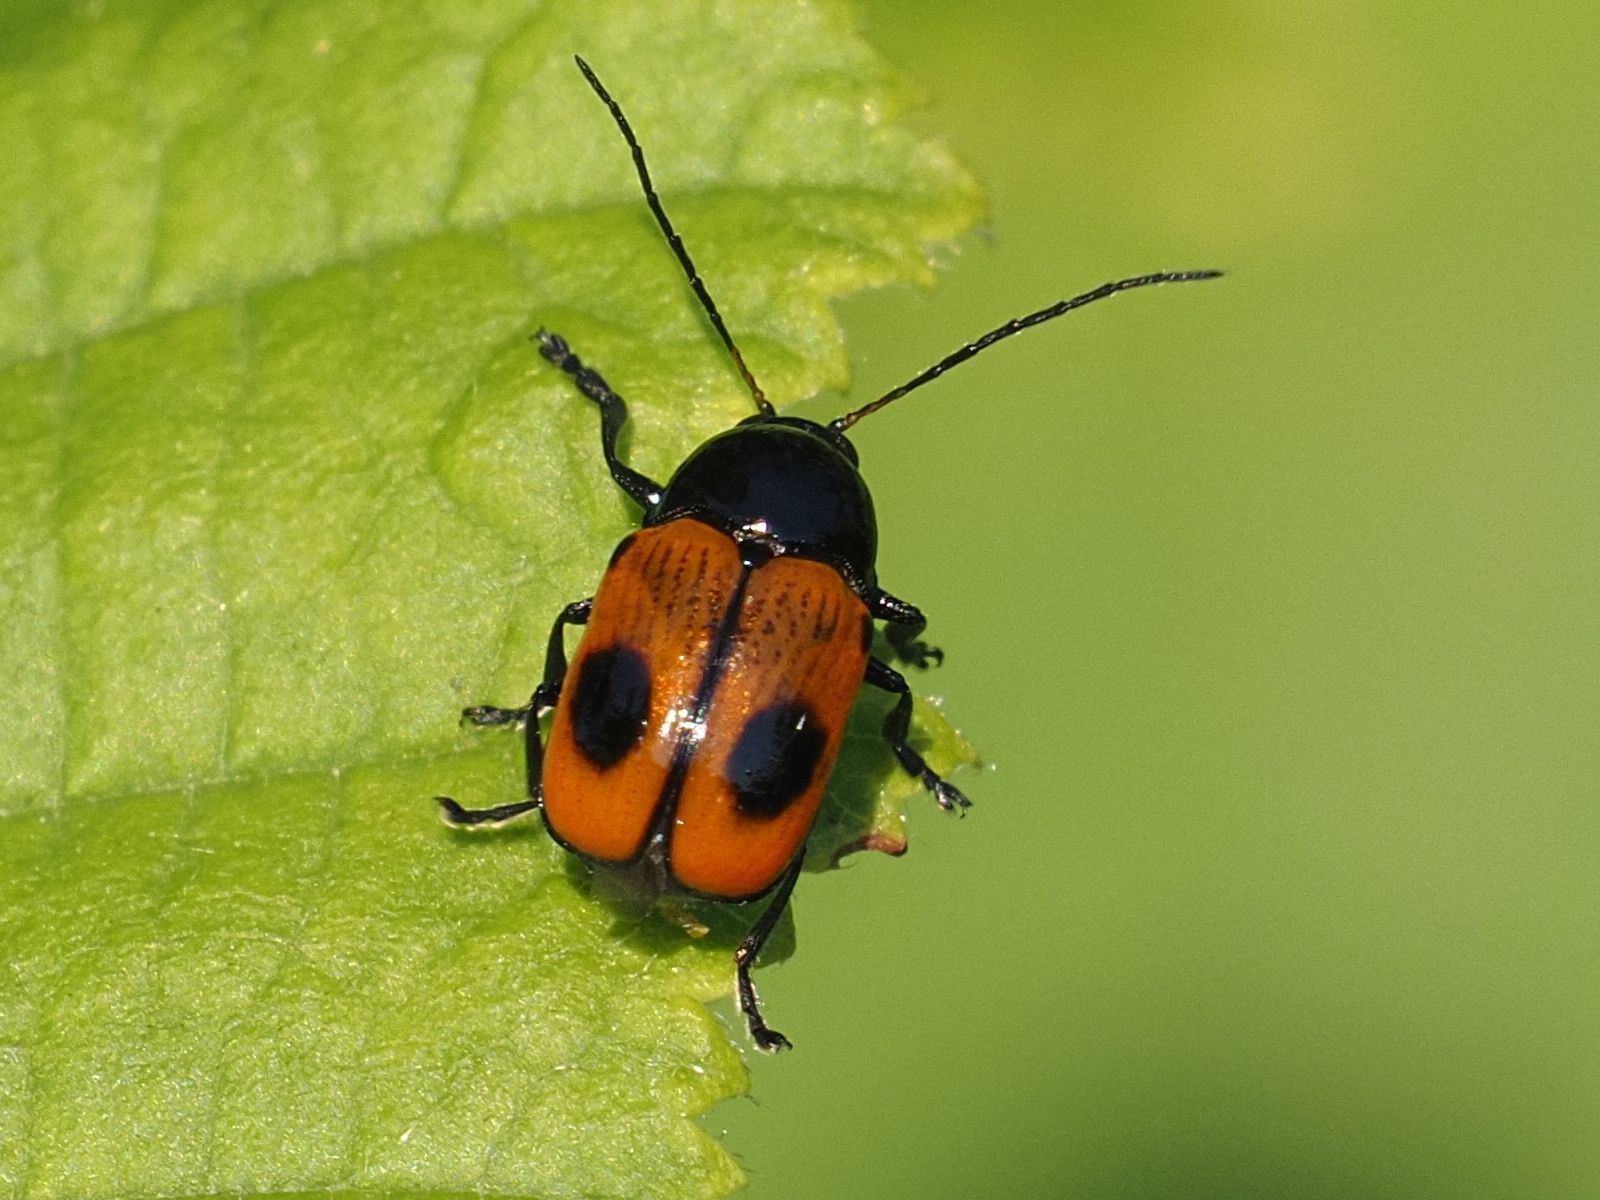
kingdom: Animalia
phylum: Arthropoda
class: Insecta
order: Coleoptera
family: Chrysomelidae
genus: Chiridopsis
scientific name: Chiridopsis bipunctata
